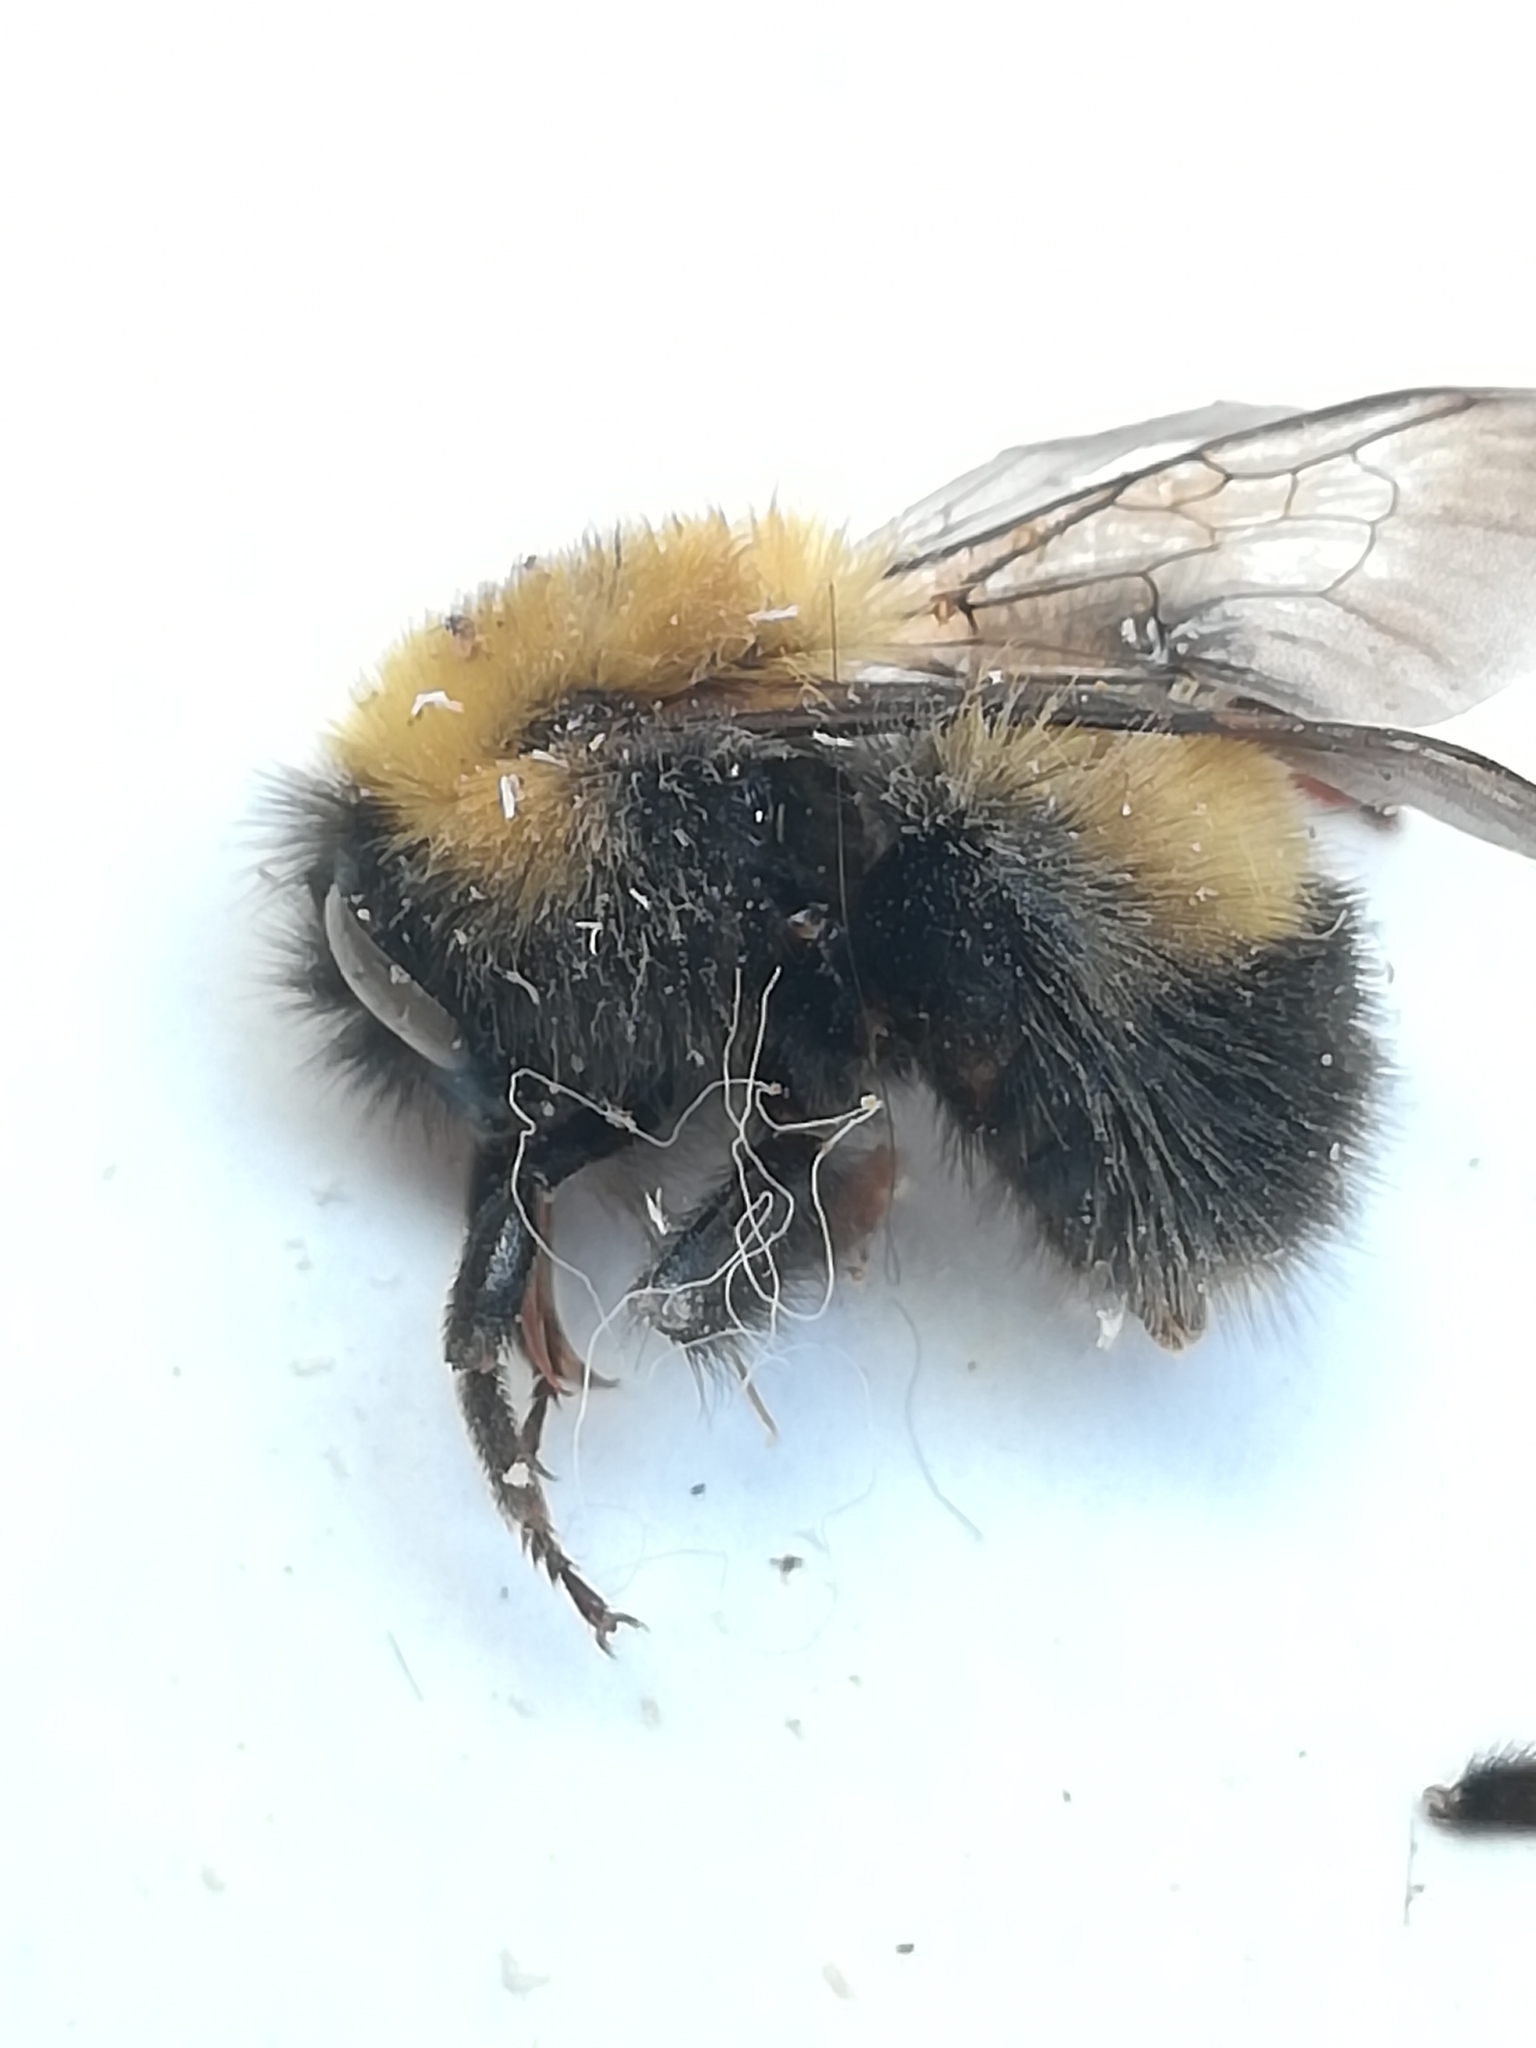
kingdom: Animalia
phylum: Arthropoda
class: Insecta
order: Hymenoptera
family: Apidae
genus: Bombus
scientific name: Bombus perplexus
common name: Confusing bumble bee
